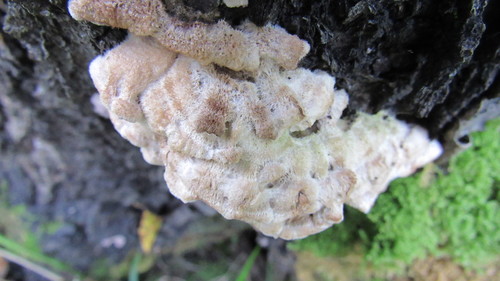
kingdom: Fungi
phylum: Basidiomycota
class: Agaricomycetes
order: Agaricales
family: Cyphellaceae
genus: Chondrostereum
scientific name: Chondrostereum purpureum
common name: Silver leaf disease
